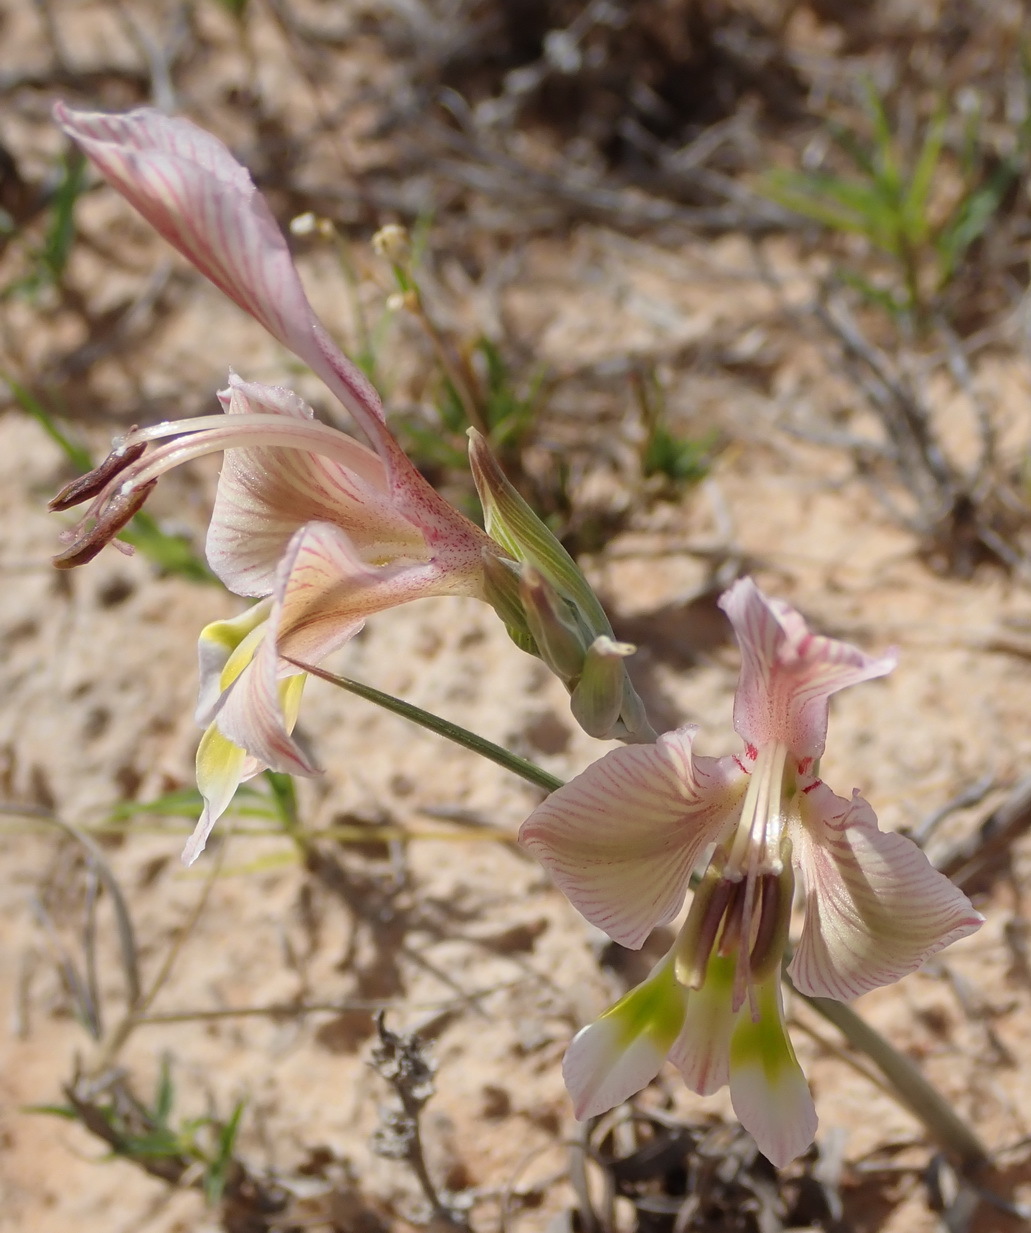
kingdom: Plantae
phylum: Tracheophyta
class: Liliopsida
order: Asparagales
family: Iridaceae
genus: Gladiolus
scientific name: Gladiolus virescens
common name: Yellow kalkoentjie
